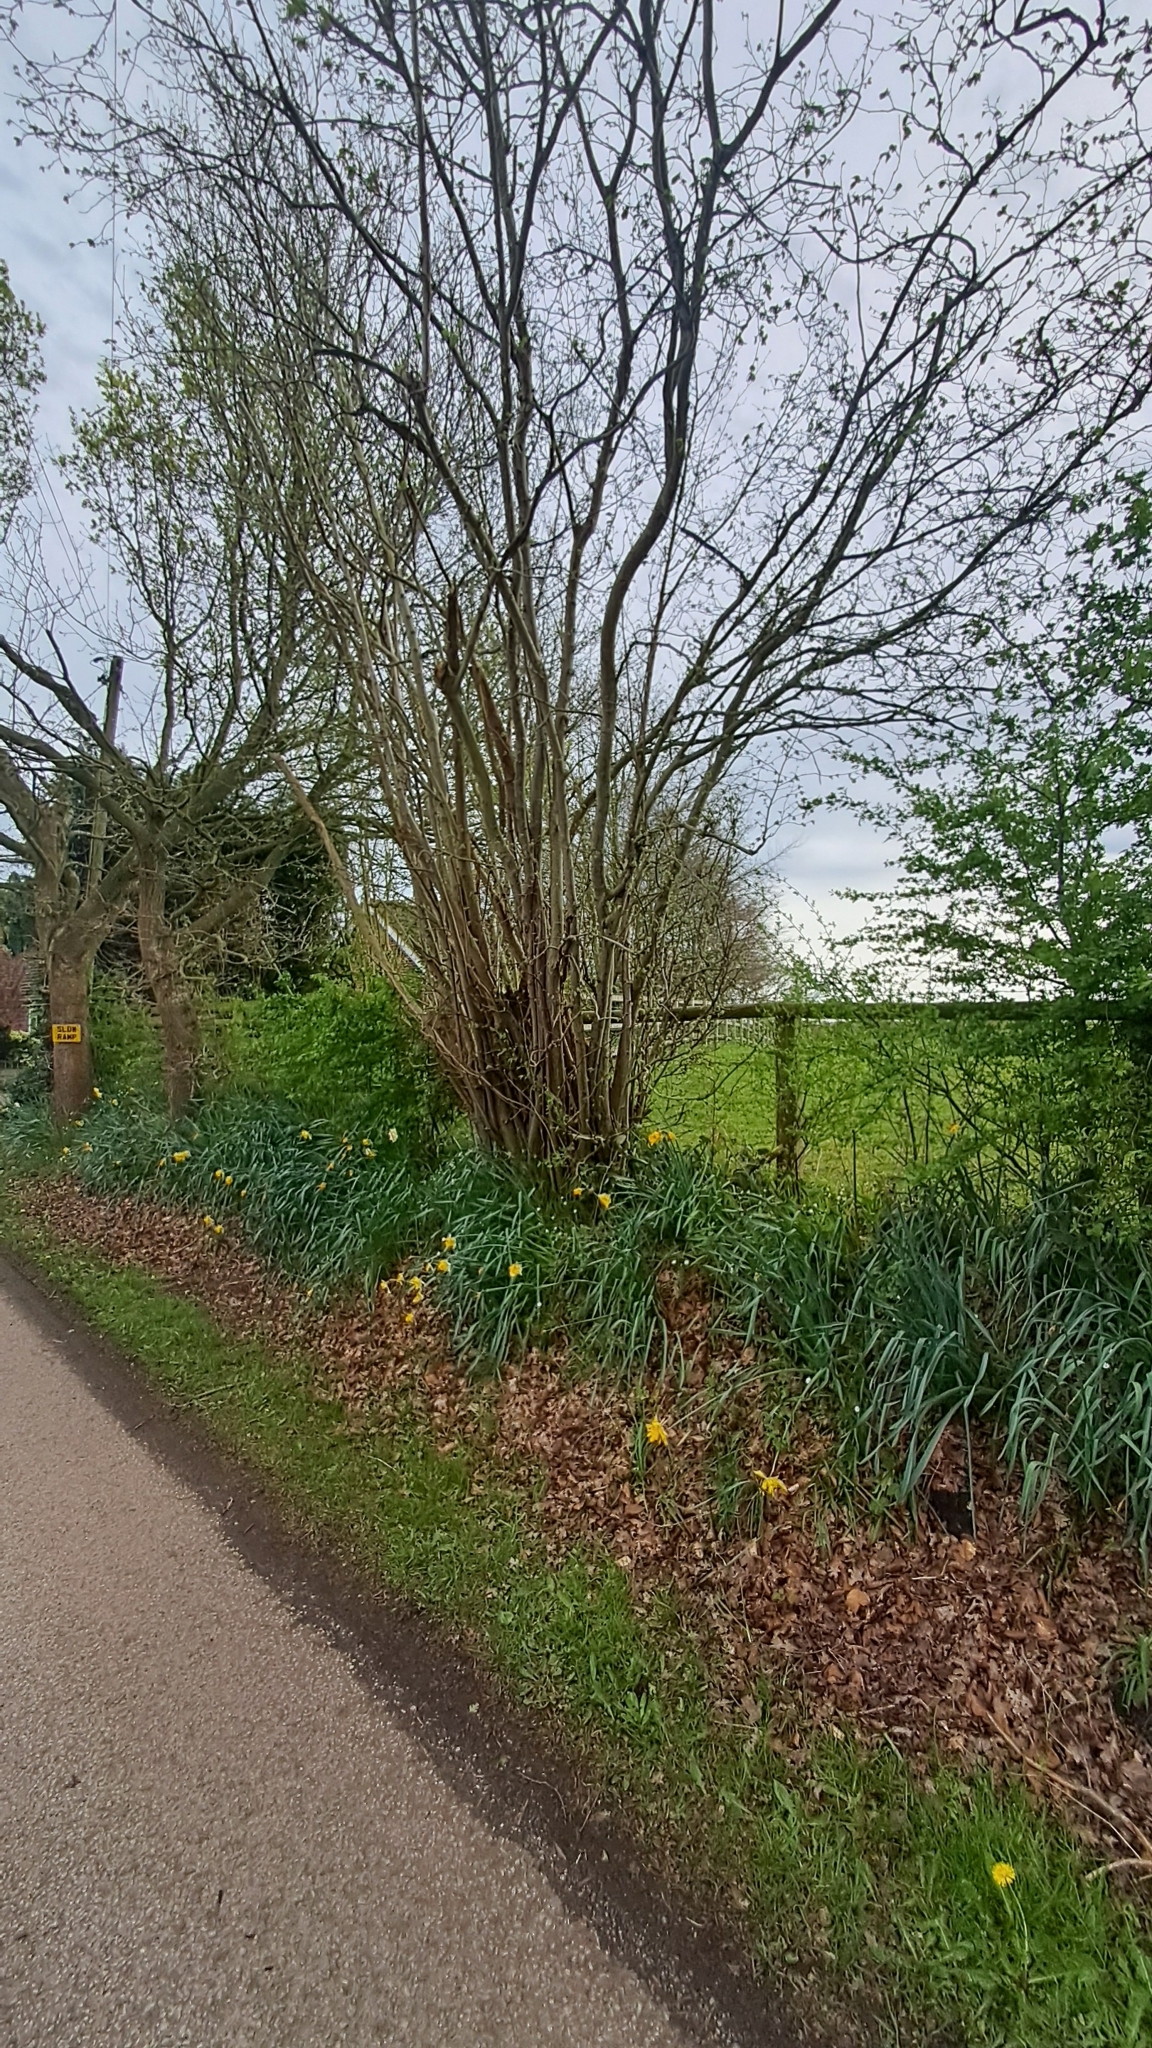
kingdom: Plantae
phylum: Tracheophyta
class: Magnoliopsida
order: Fagales
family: Betulaceae
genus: Corylus
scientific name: Corylus avellana
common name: European hazel
